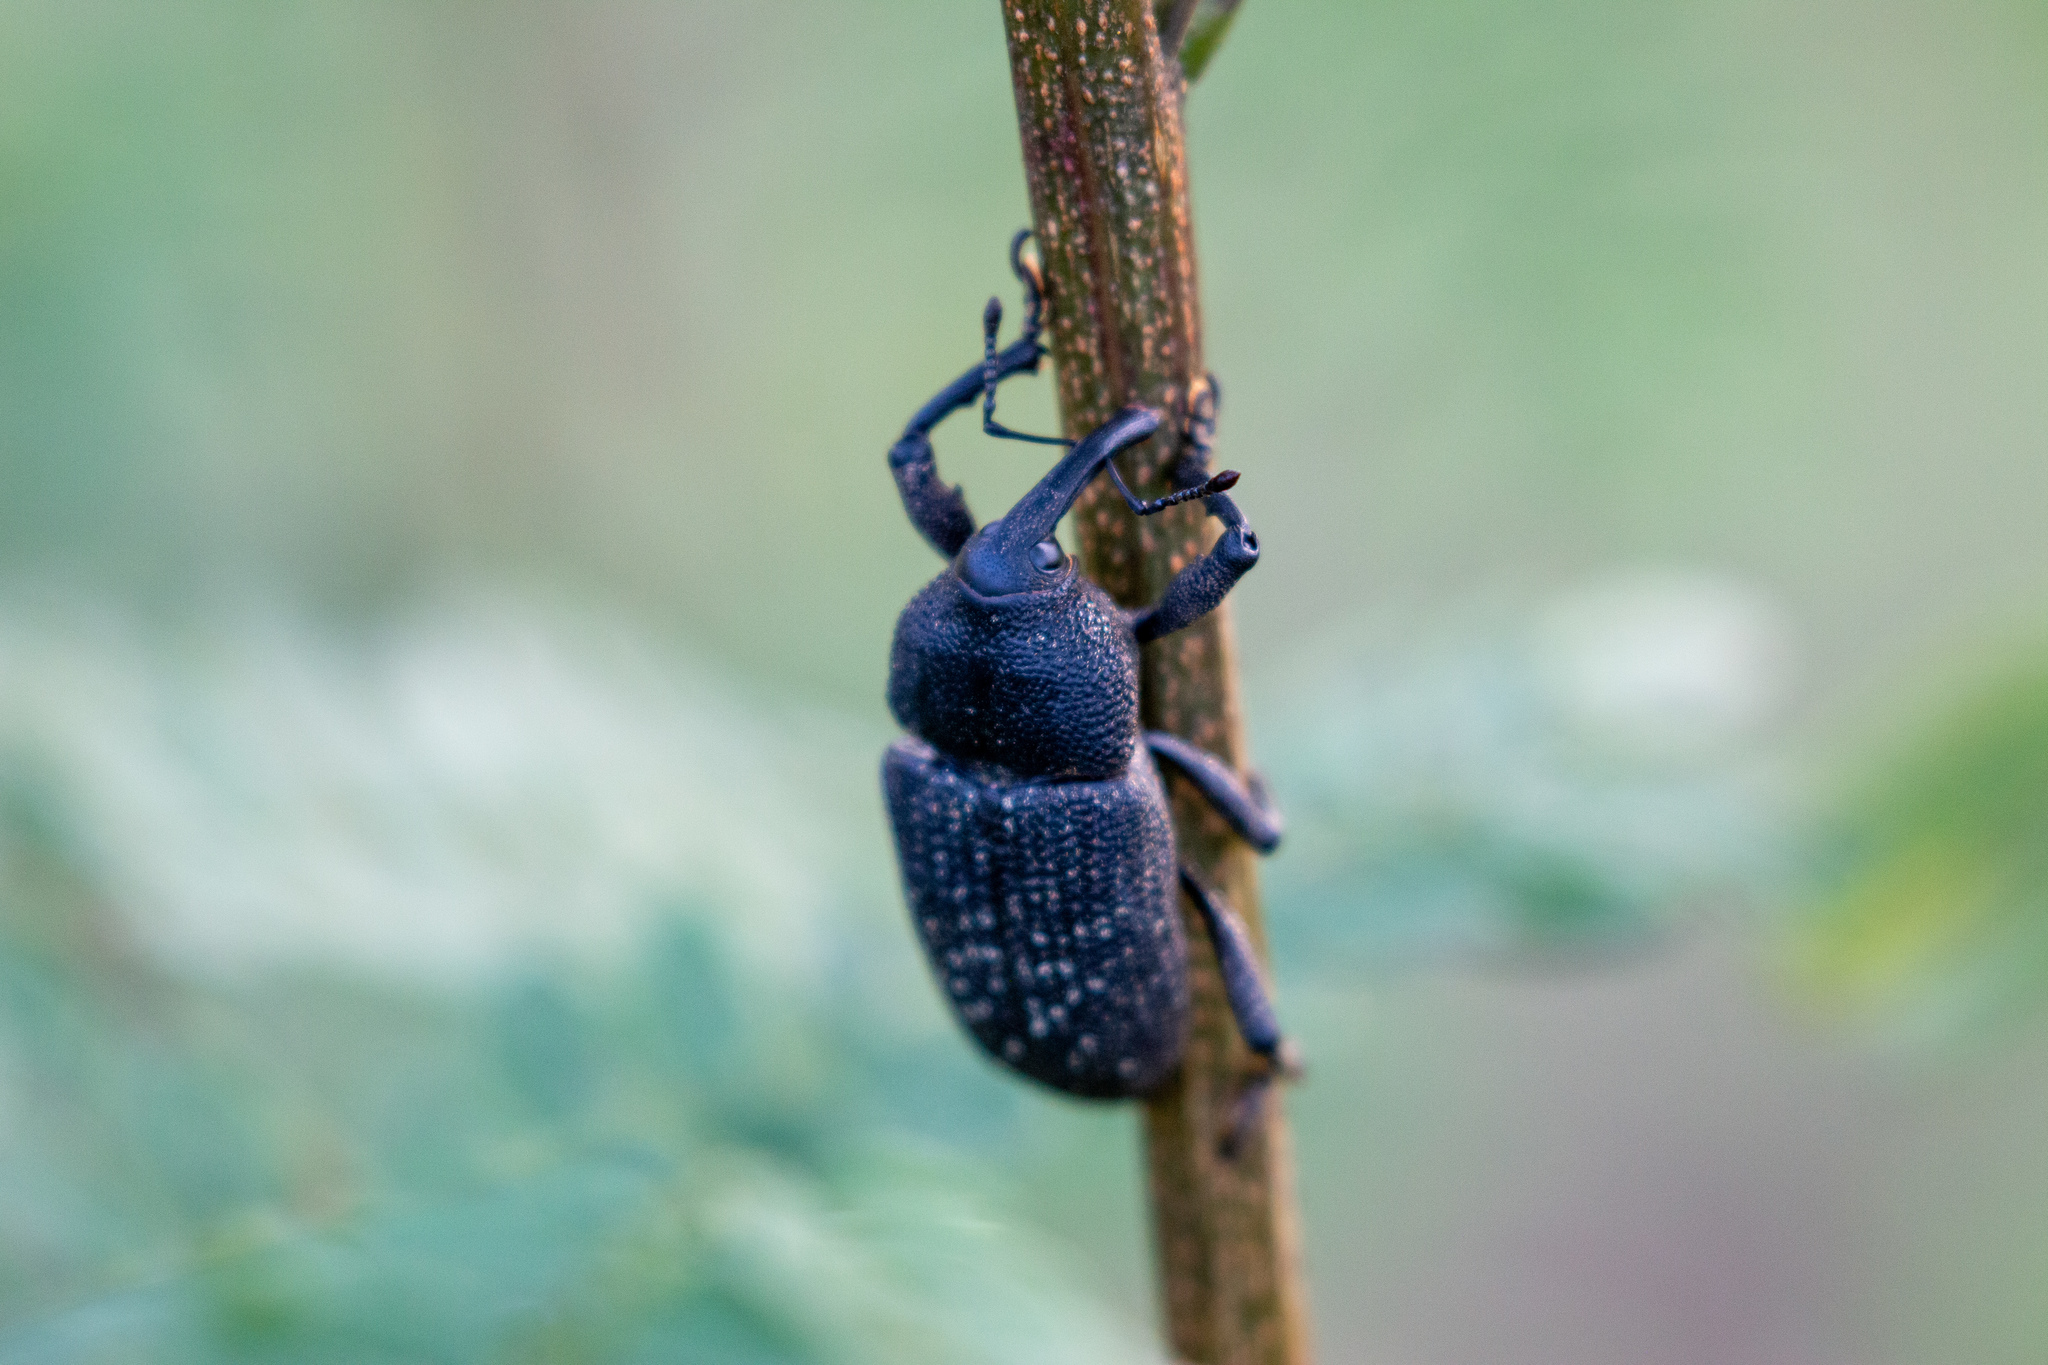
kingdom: Animalia
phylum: Arthropoda
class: Insecta
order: Coleoptera
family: Curculionidae
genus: Homalinotus
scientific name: Homalinotus coriaceus
